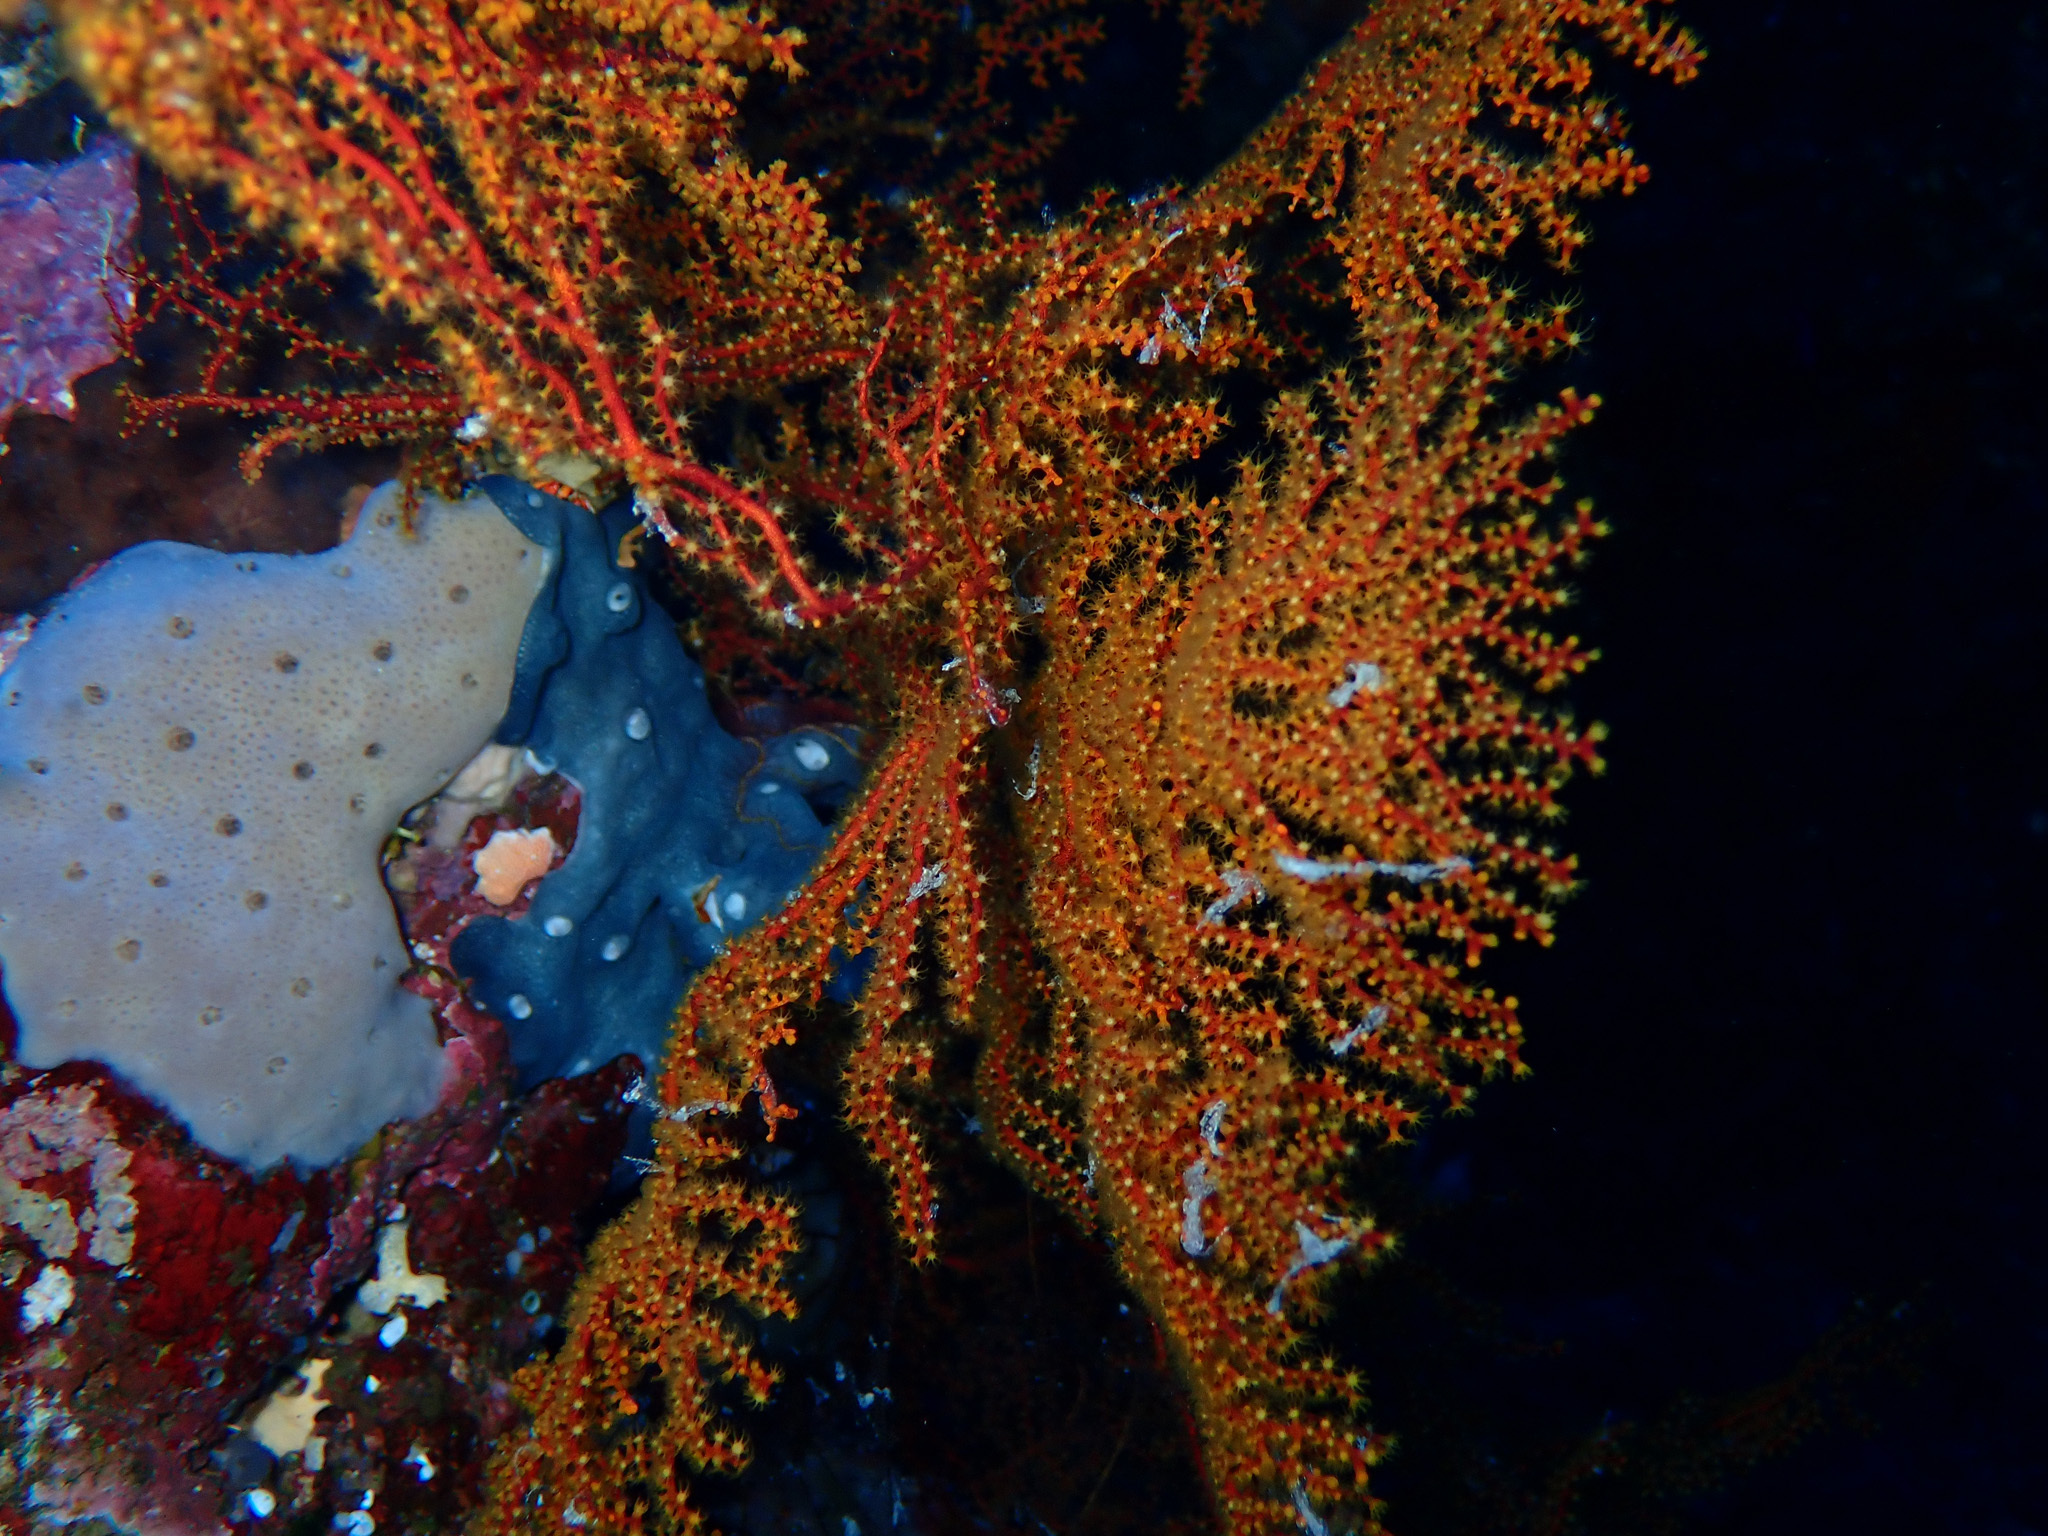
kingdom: Animalia
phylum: Cnidaria
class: Anthozoa
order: Malacalcyonacea
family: Paramuriceidae
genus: Paracis
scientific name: Paracis chawwa
